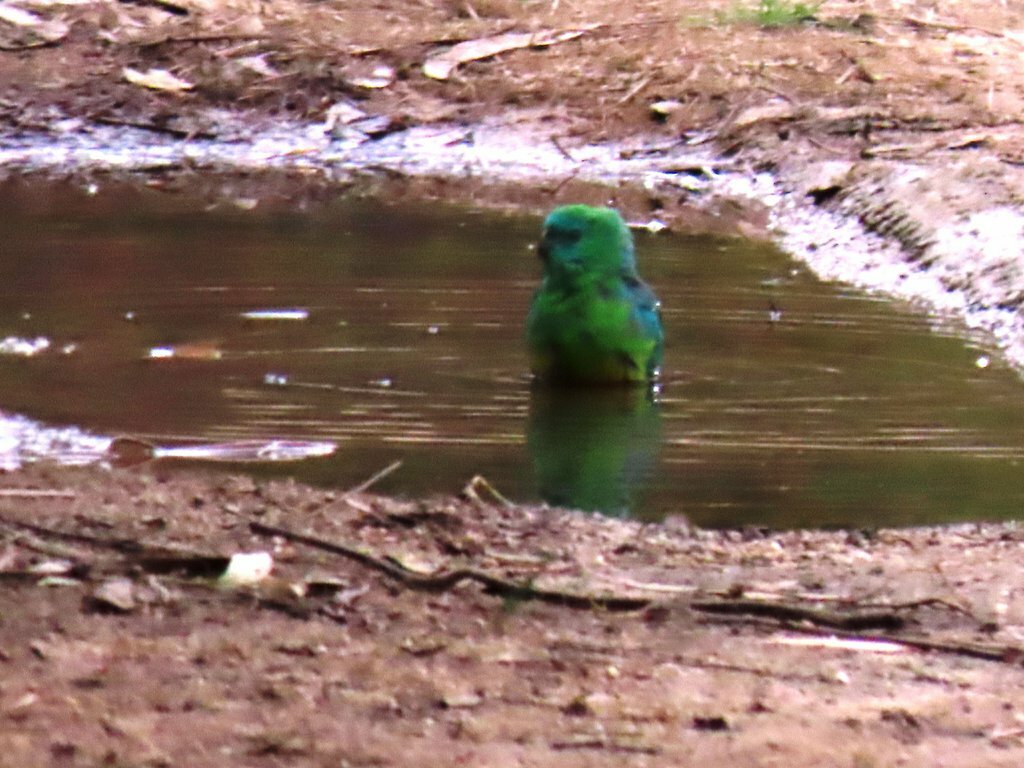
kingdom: Animalia
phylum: Chordata
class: Aves
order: Psittaciformes
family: Psittacidae
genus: Psephotus
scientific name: Psephotus haematonotus
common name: Red-rumped parrot
